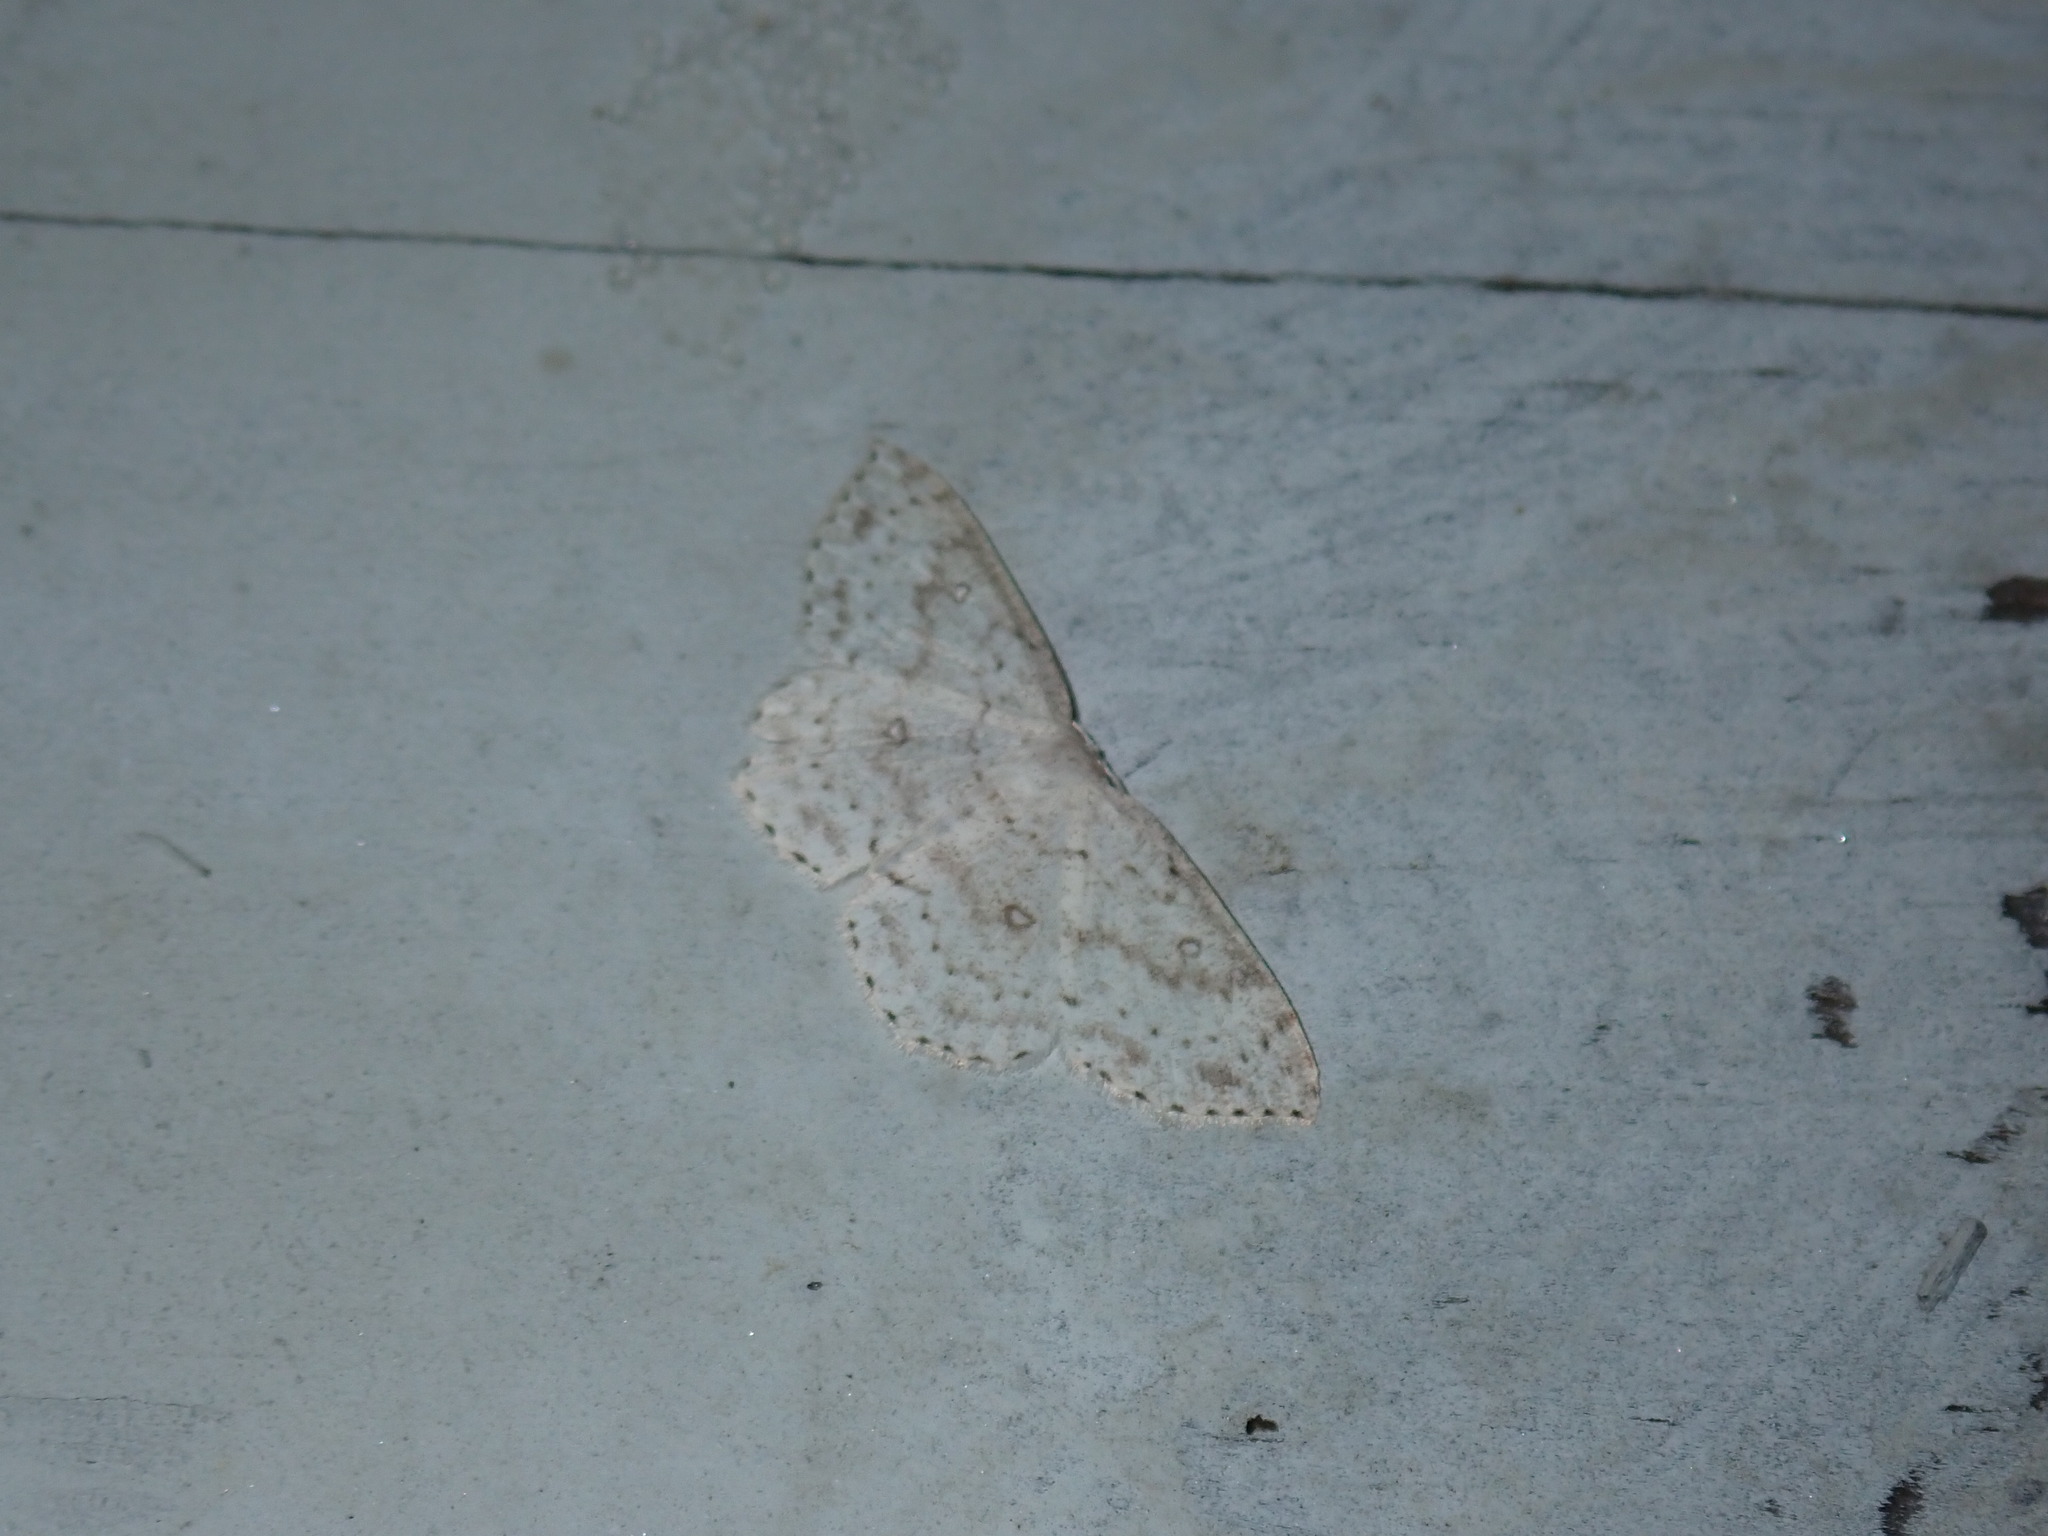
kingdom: Animalia
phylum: Arthropoda
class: Insecta
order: Lepidoptera
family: Geometridae
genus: Cyclophora
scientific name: Cyclophora pendulinaria
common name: Sweet fern geometer
